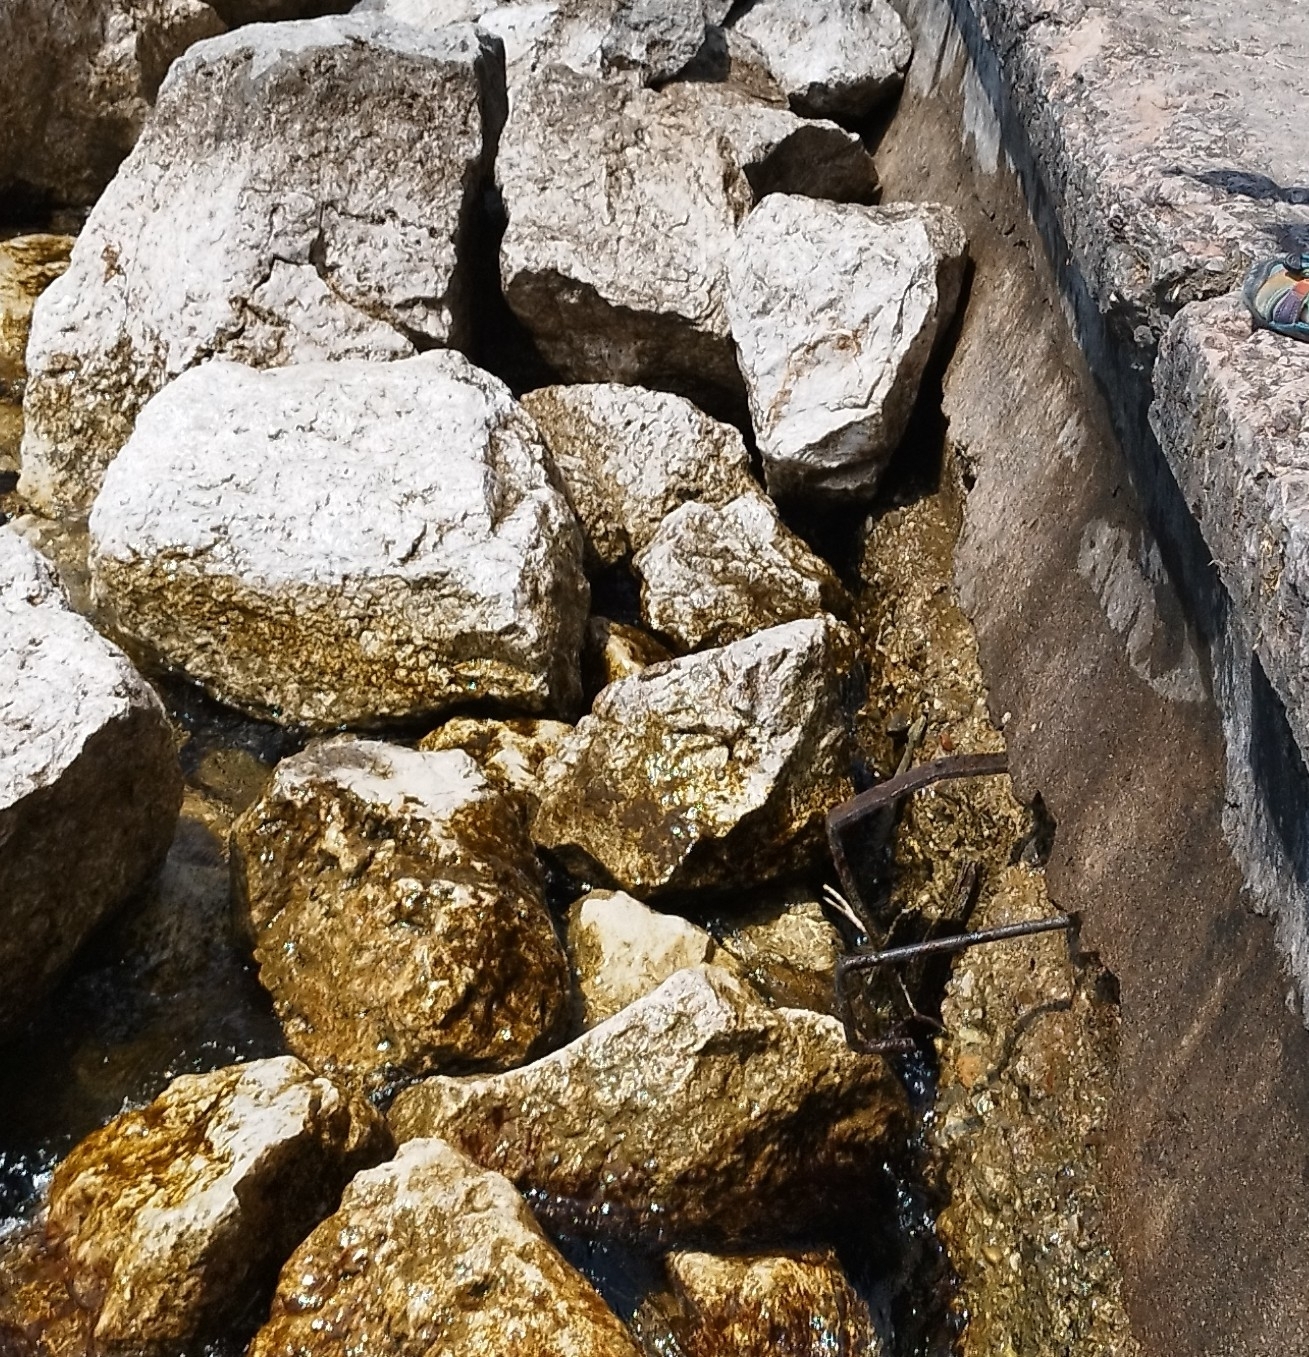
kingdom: Animalia
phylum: Chordata
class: Squamata
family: Colubridae
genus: Natrix
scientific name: Natrix tessellata
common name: Dice snake
